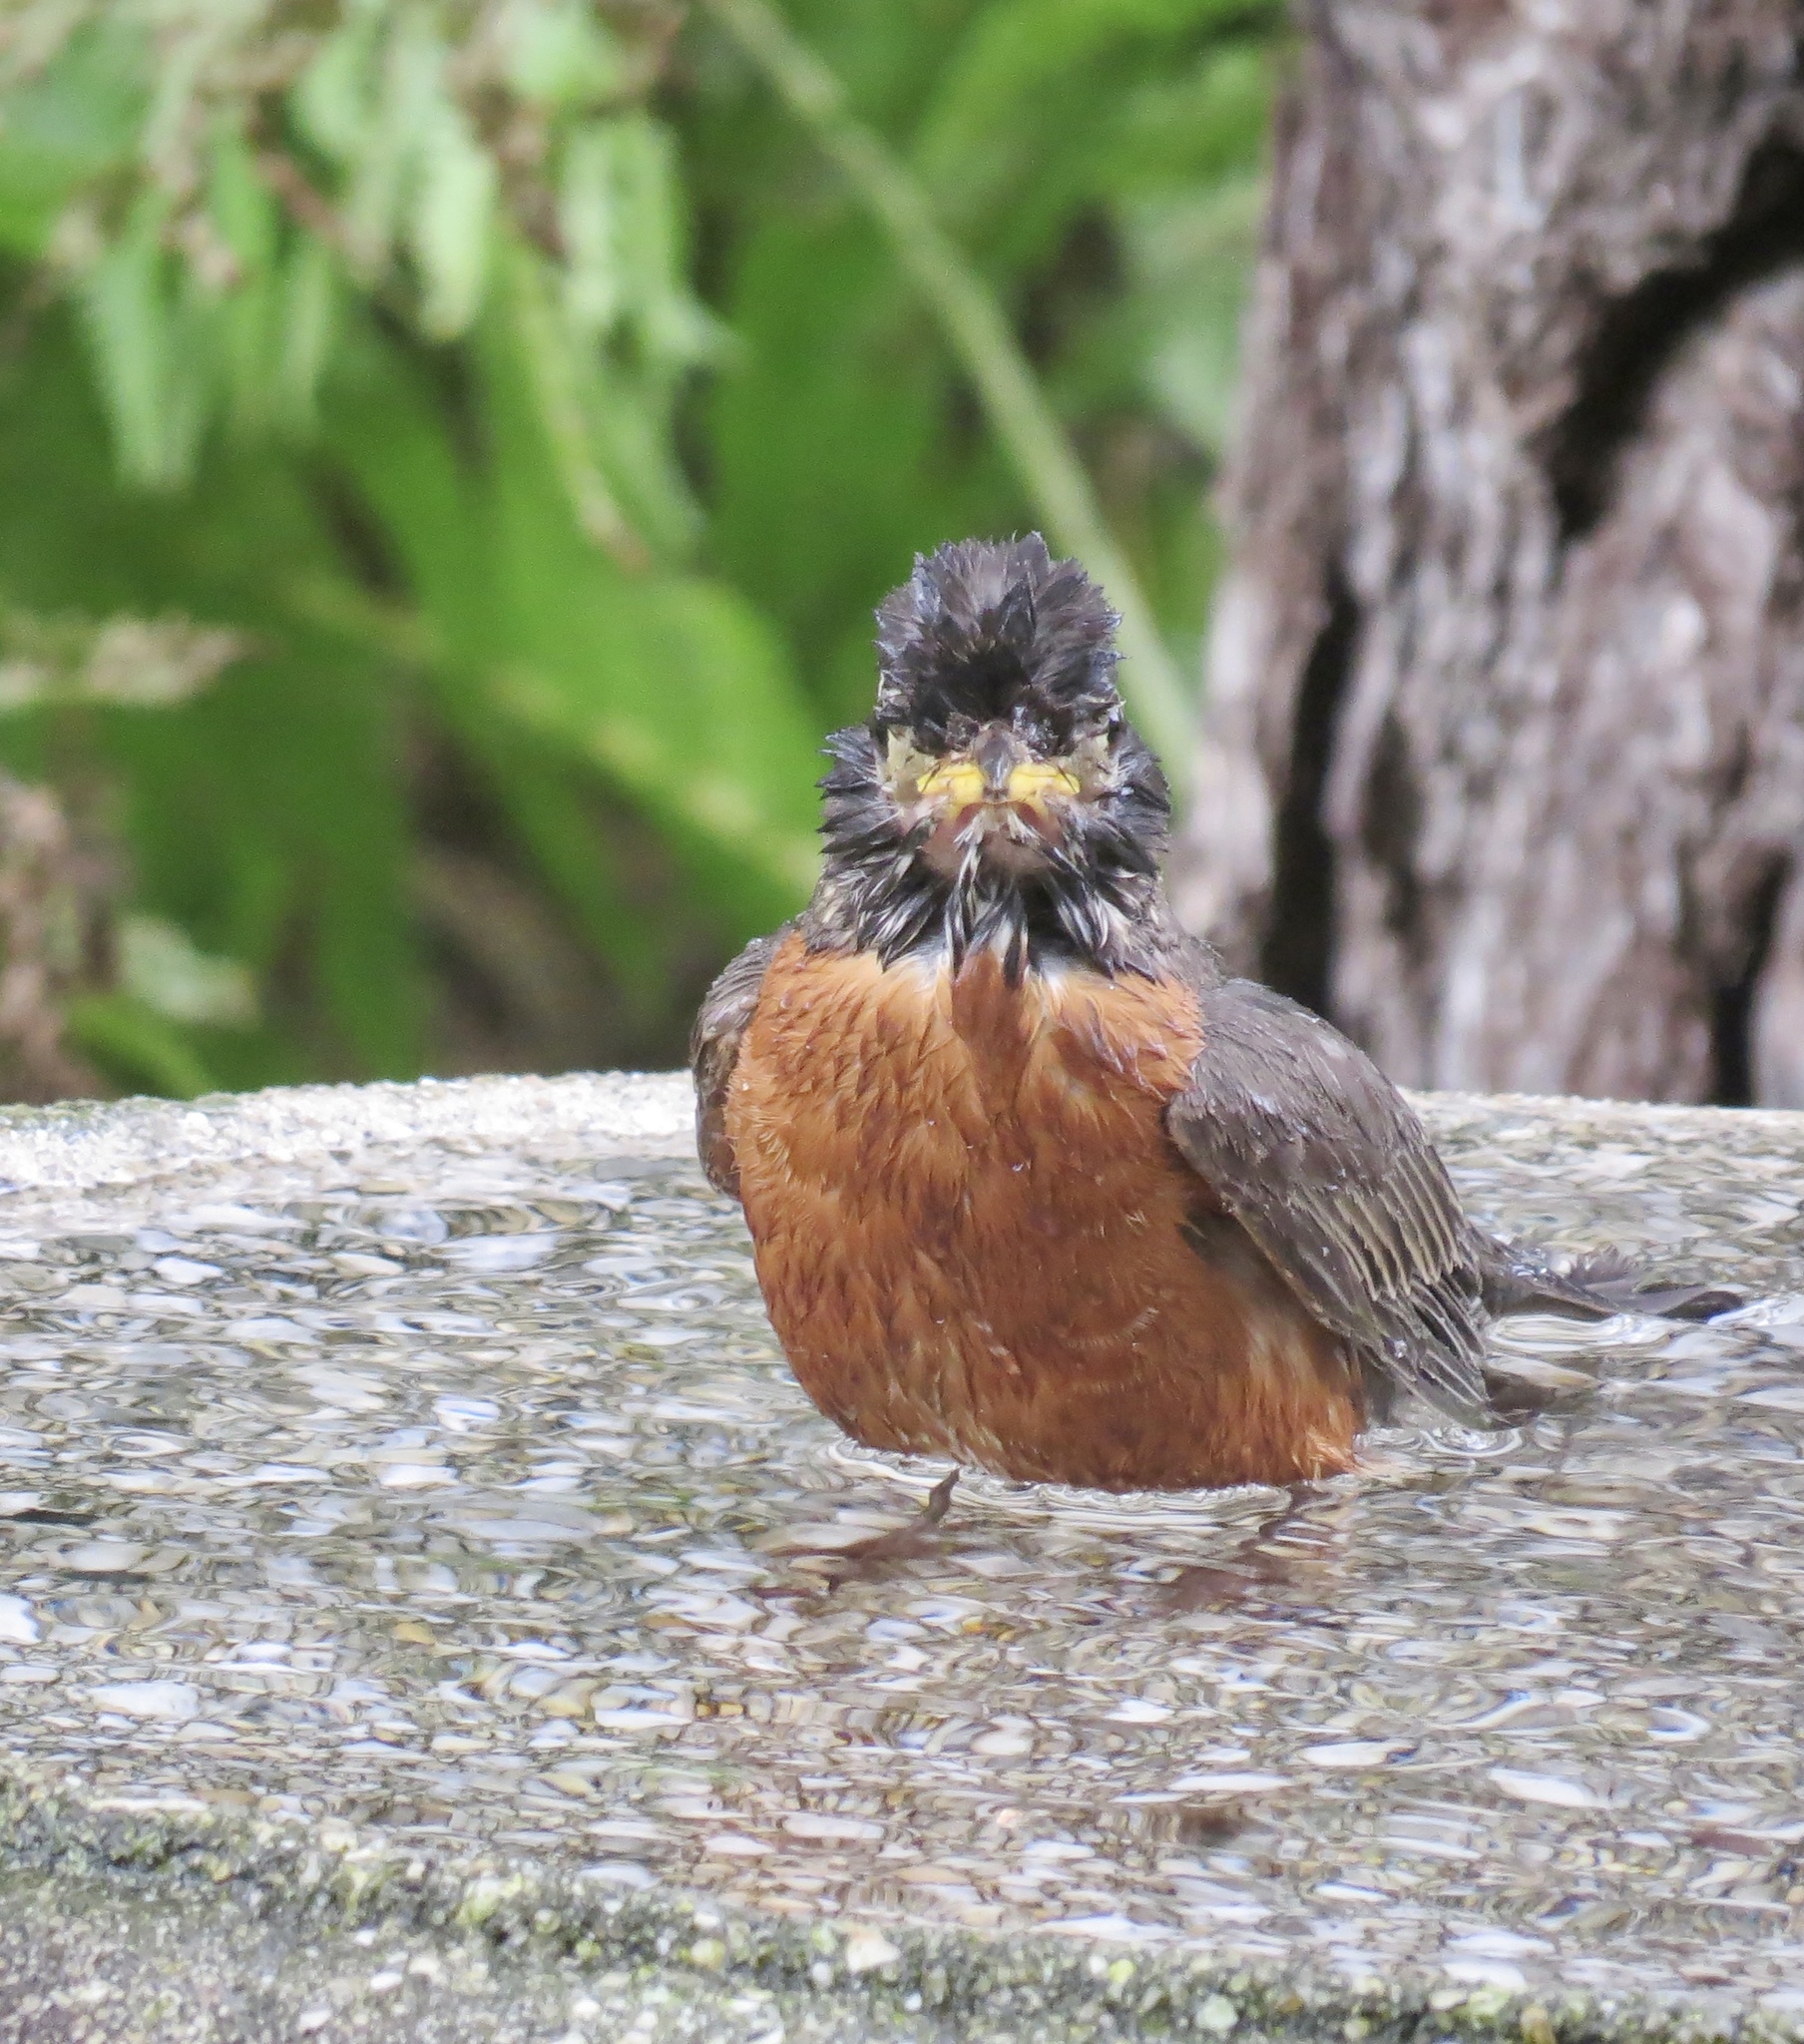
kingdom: Animalia
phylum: Chordata
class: Aves
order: Passeriformes
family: Turdidae
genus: Turdus
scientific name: Turdus migratorius
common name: American robin
